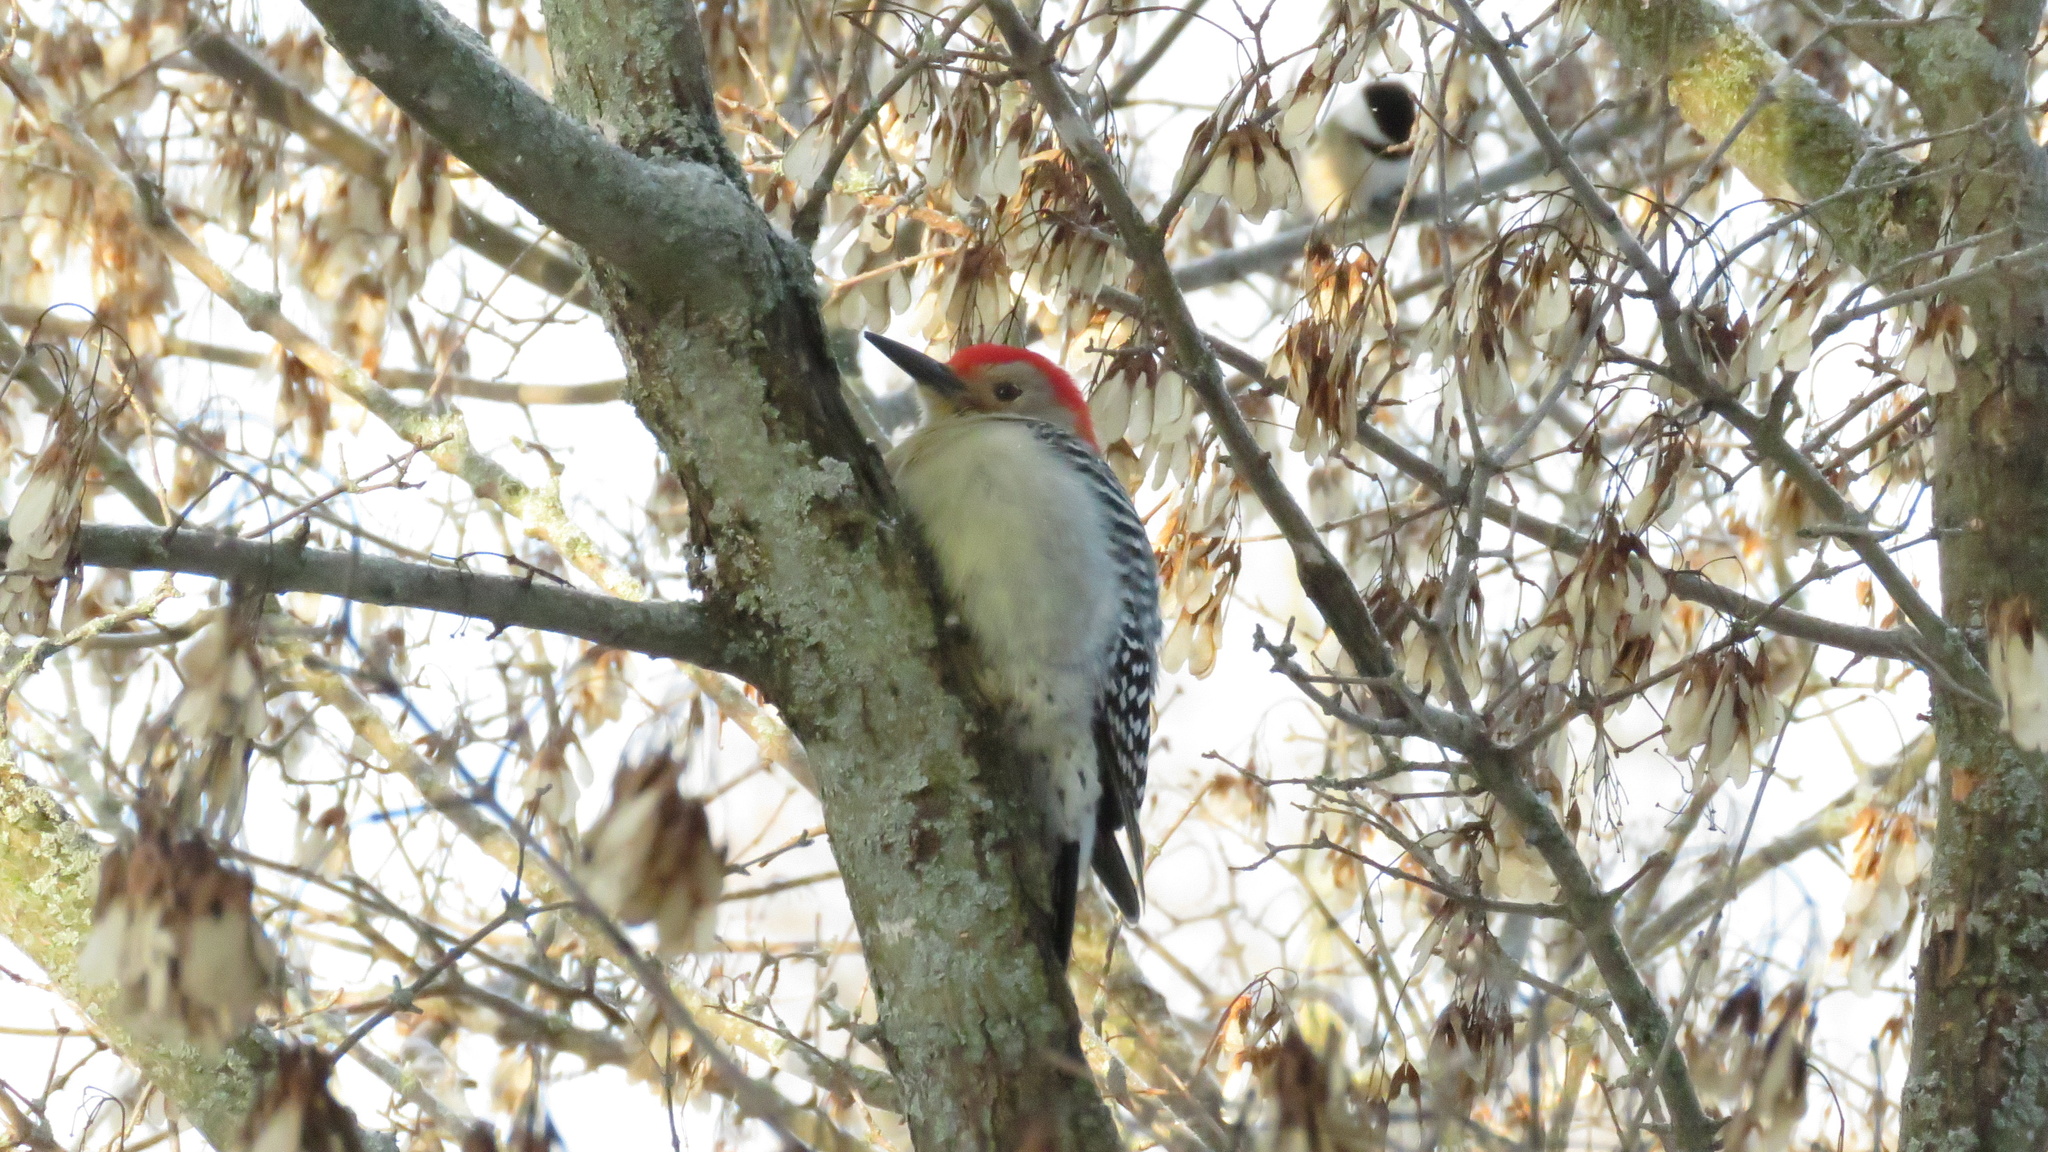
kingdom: Animalia
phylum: Chordata
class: Aves
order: Piciformes
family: Picidae
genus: Melanerpes
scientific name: Melanerpes carolinus
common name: Red-bellied woodpecker
